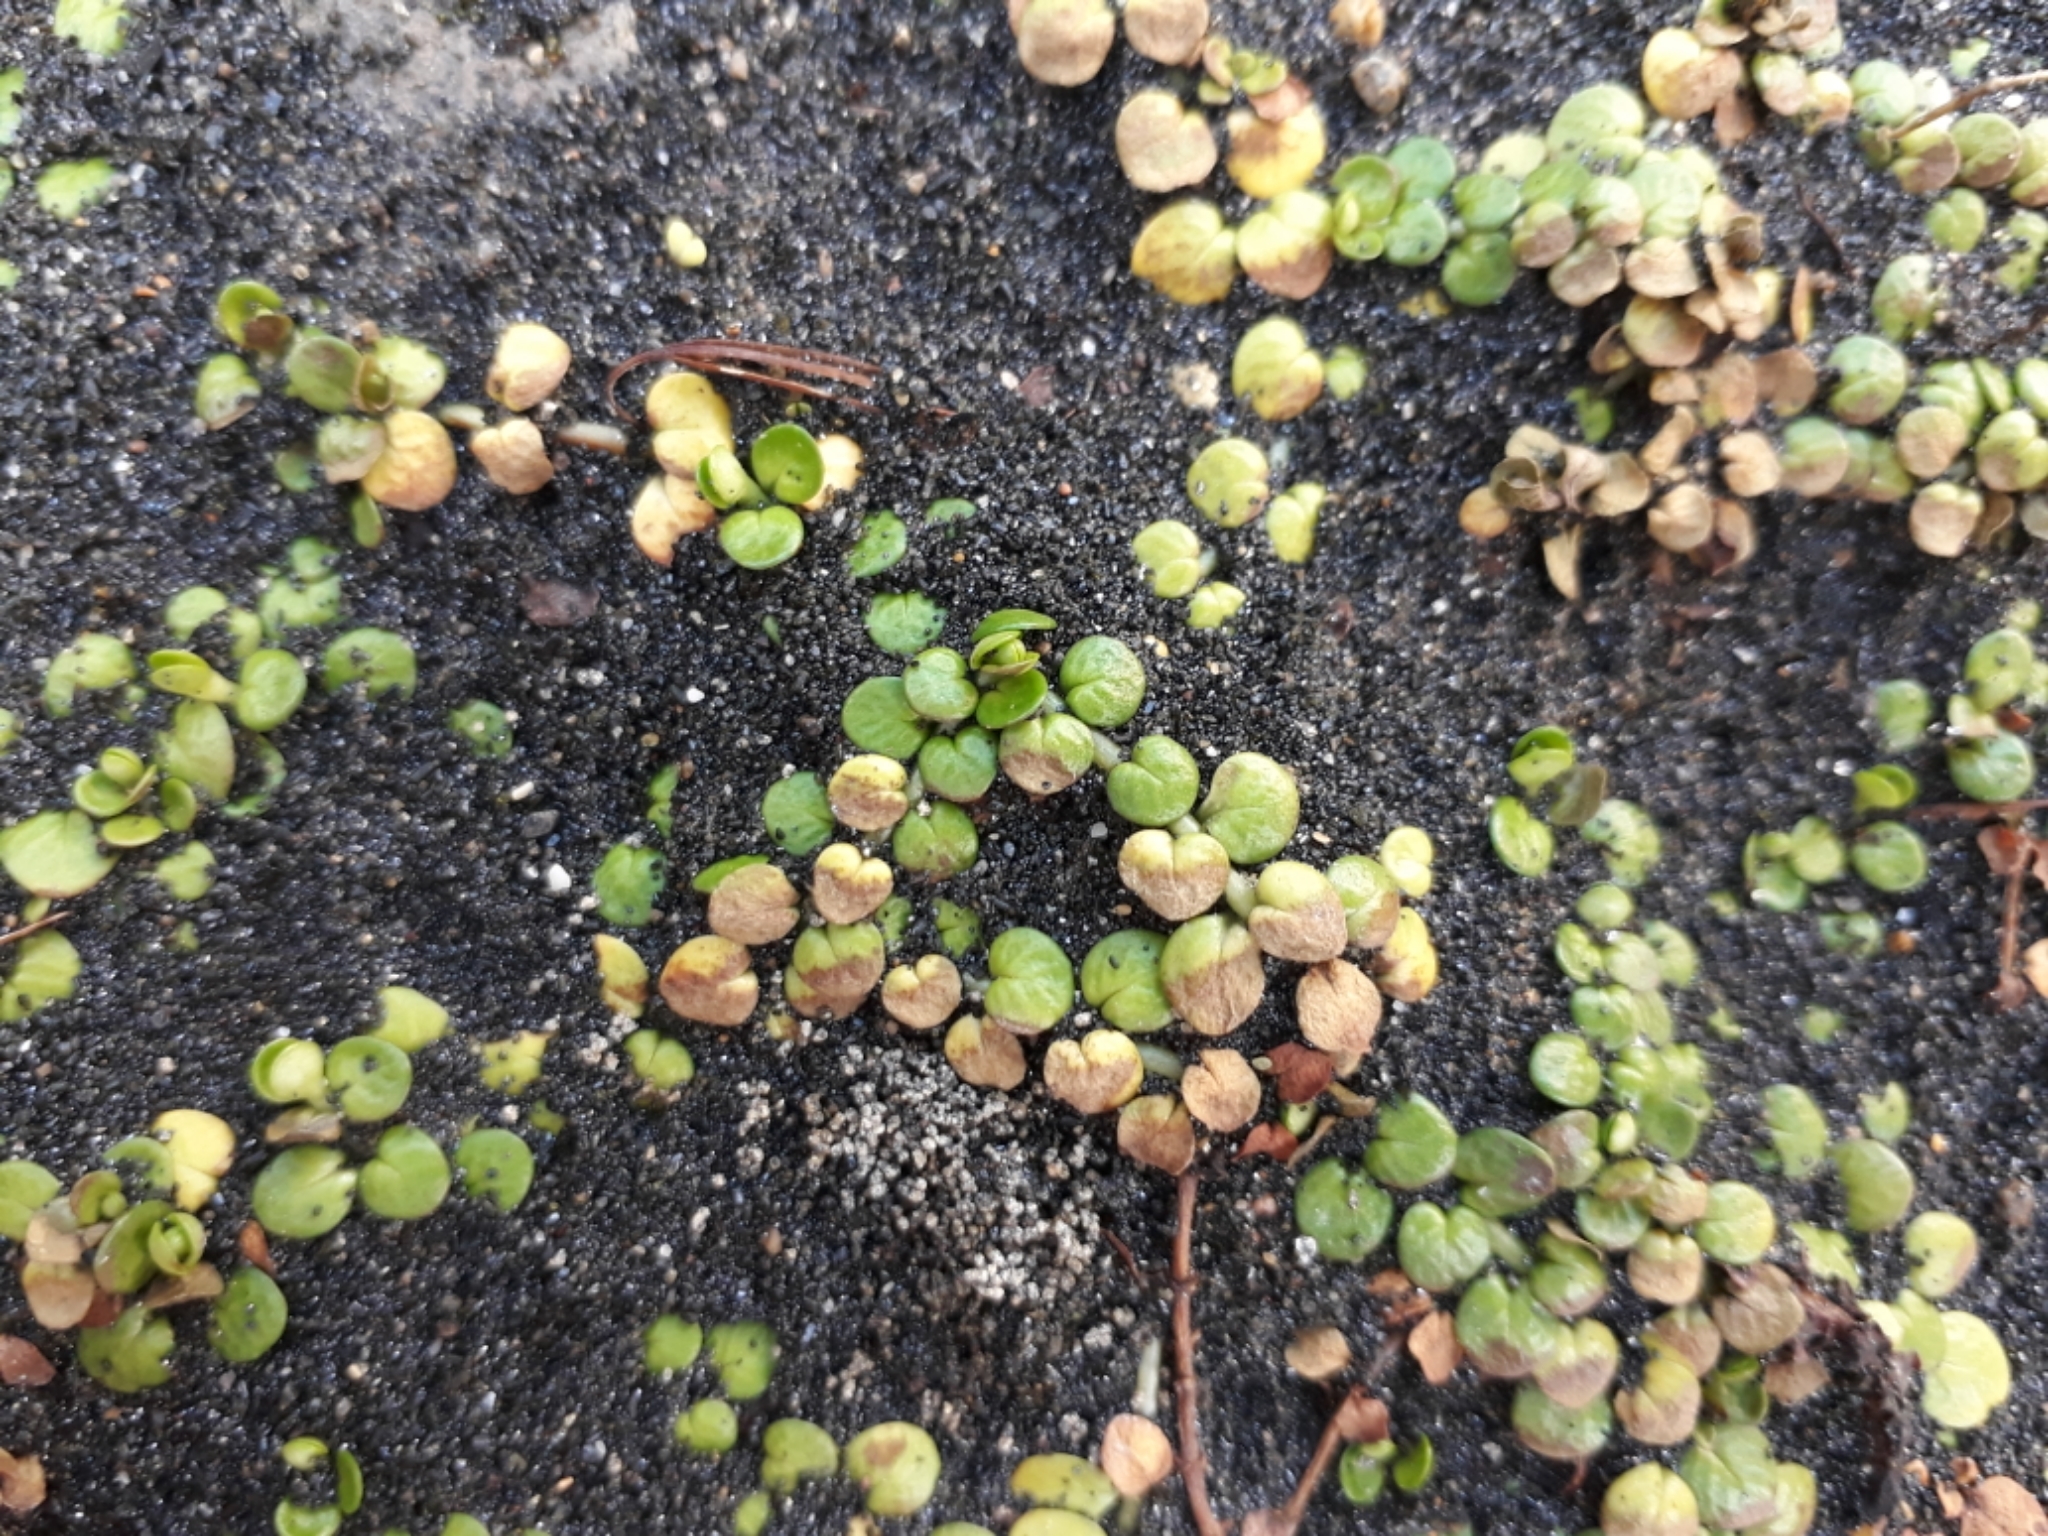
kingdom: Plantae
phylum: Tracheophyta
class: Magnoliopsida
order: Myrtales
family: Onagraceae
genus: Epilobium
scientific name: Epilobium komarovianum
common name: Bronzy willowherb
